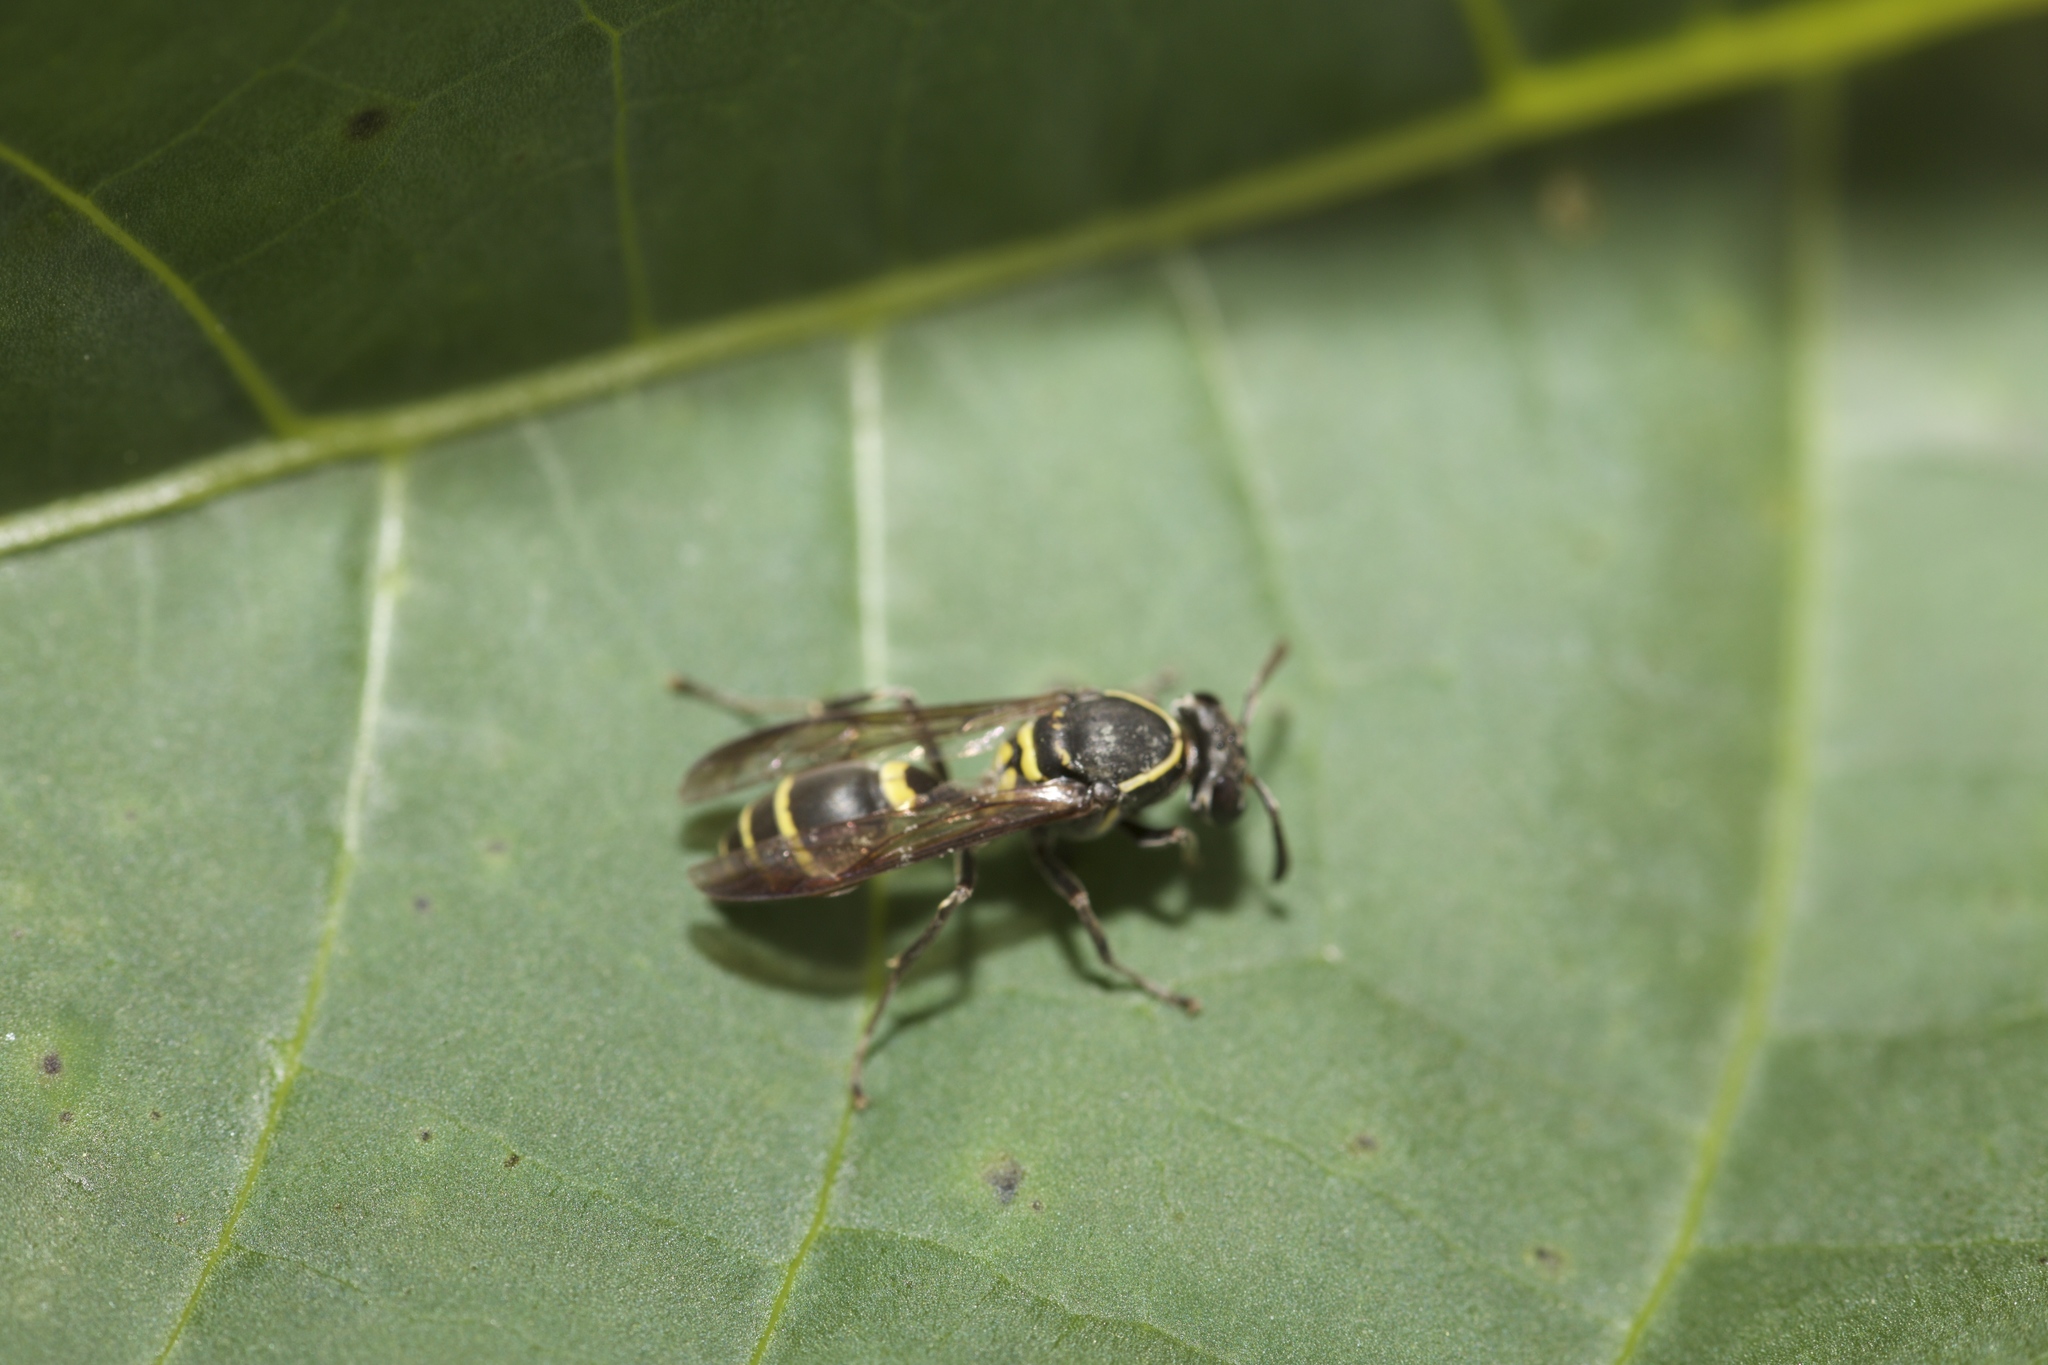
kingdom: Animalia
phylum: Arthropoda
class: Insecta
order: Hymenoptera
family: Vespidae
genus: Myrapetra
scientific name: Myrapetra
